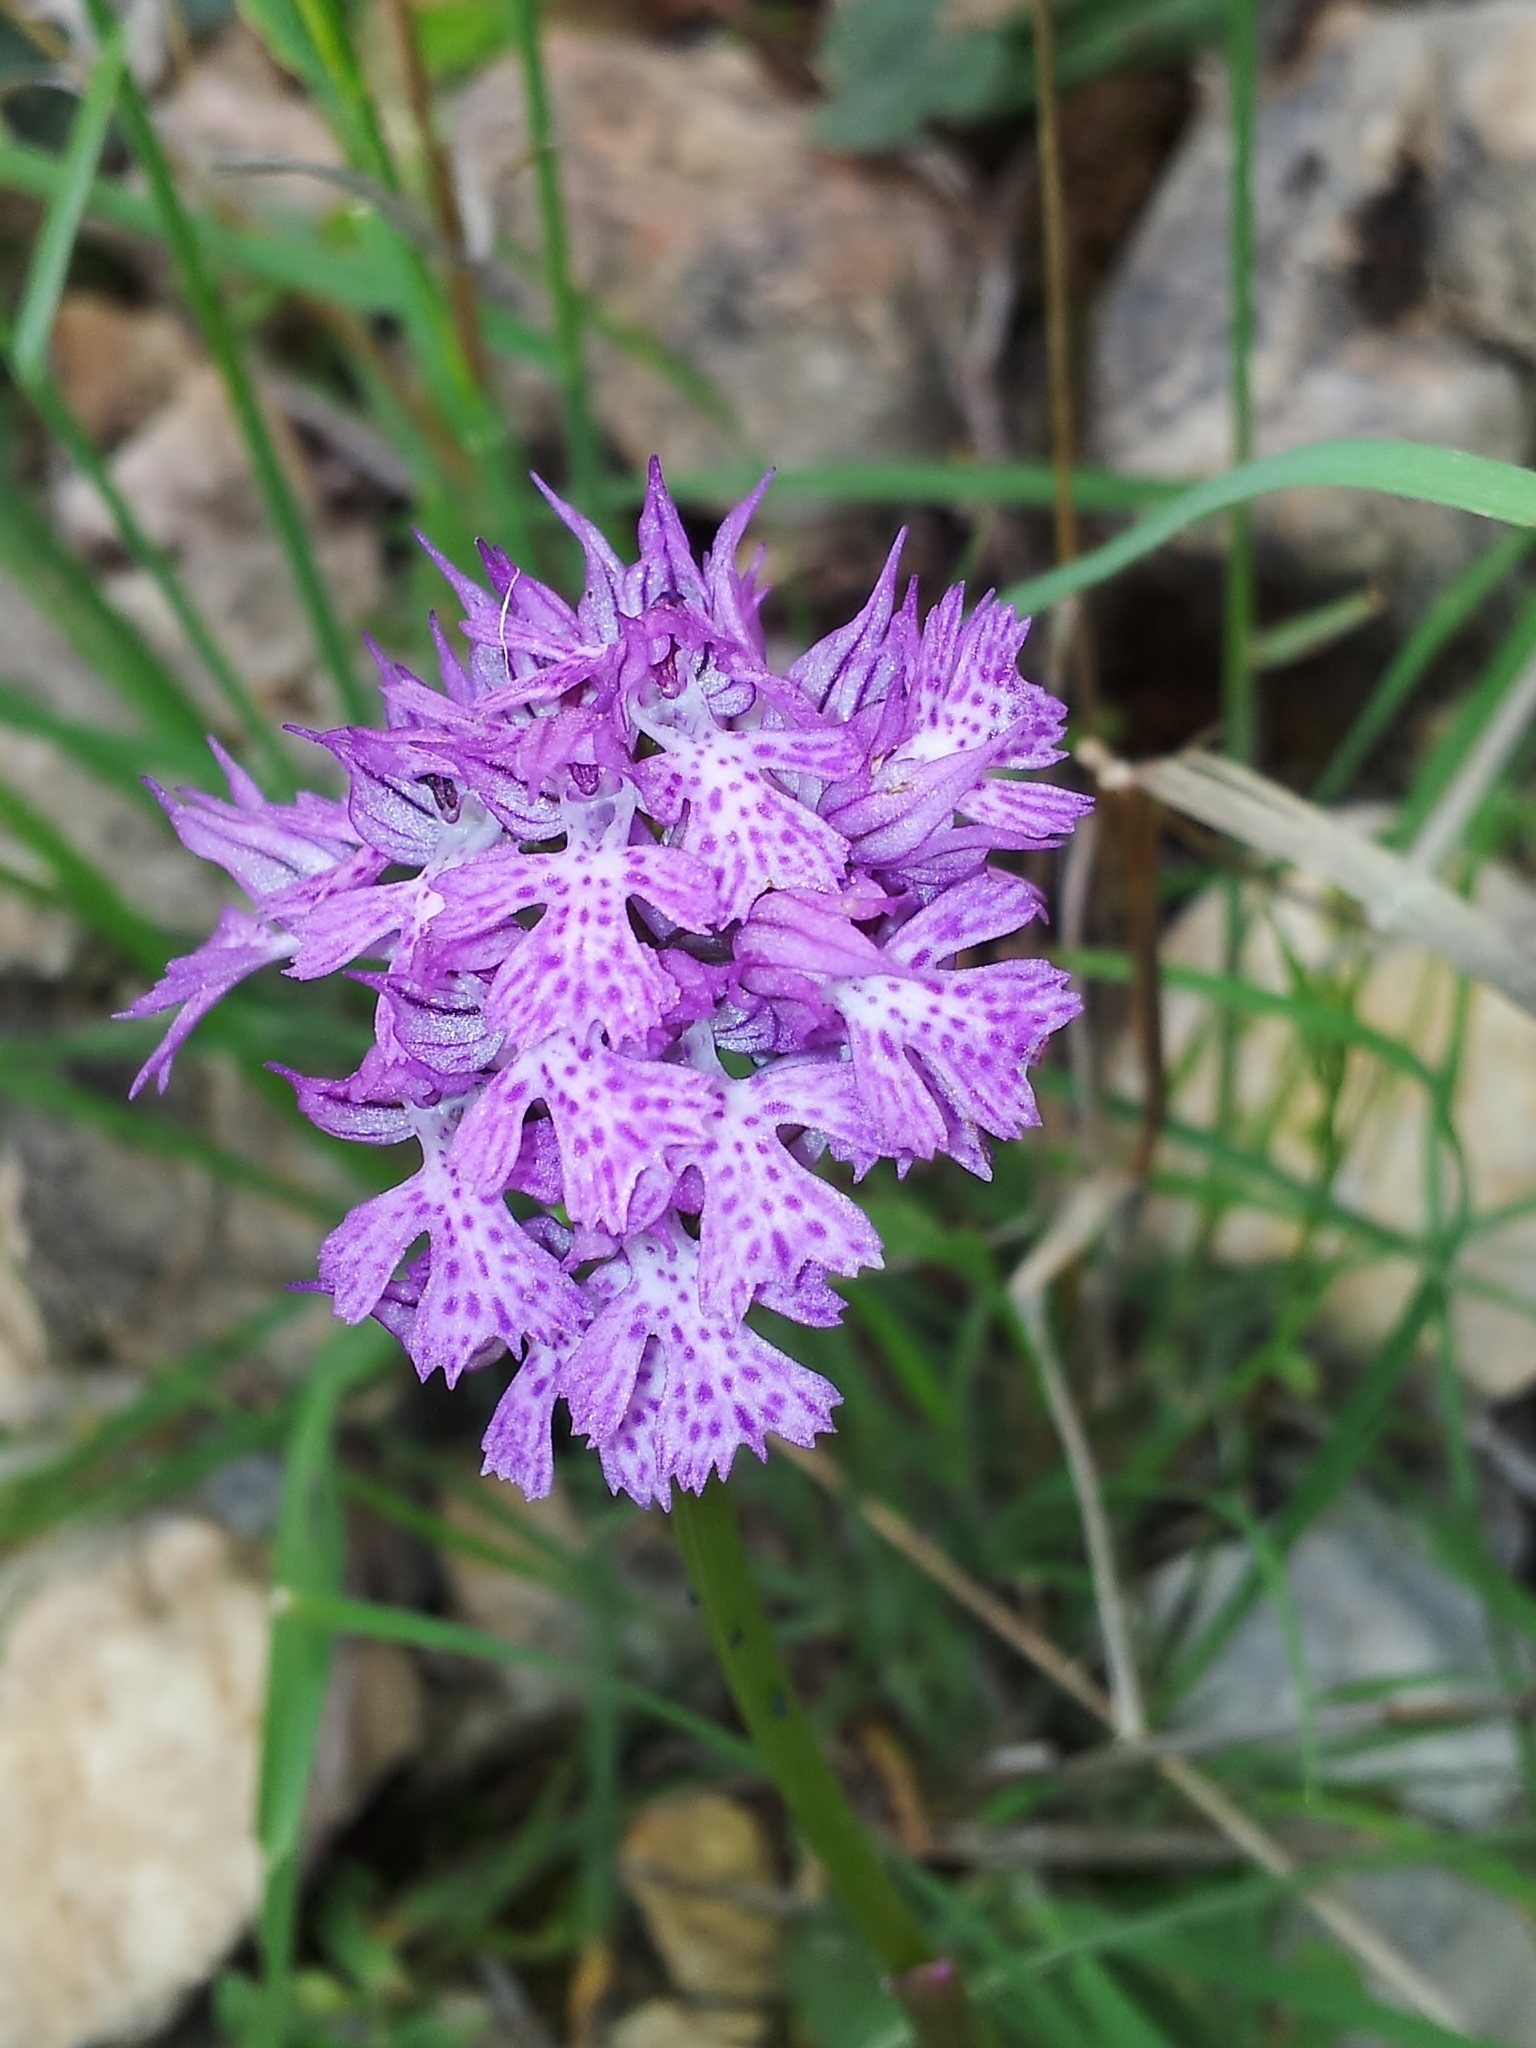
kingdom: Plantae
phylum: Tracheophyta
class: Liliopsida
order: Asparagales
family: Orchidaceae
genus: Neotinea
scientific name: Neotinea tridentata
